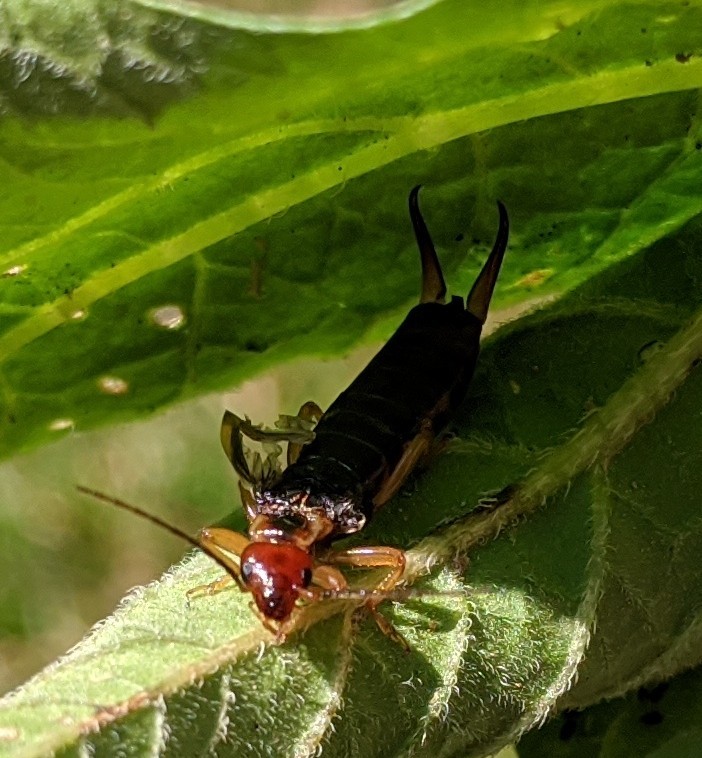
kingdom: Animalia
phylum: Arthropoda
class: Insecta
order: Dermaptera
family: Forficulidae
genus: Forficula
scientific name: Forficula
